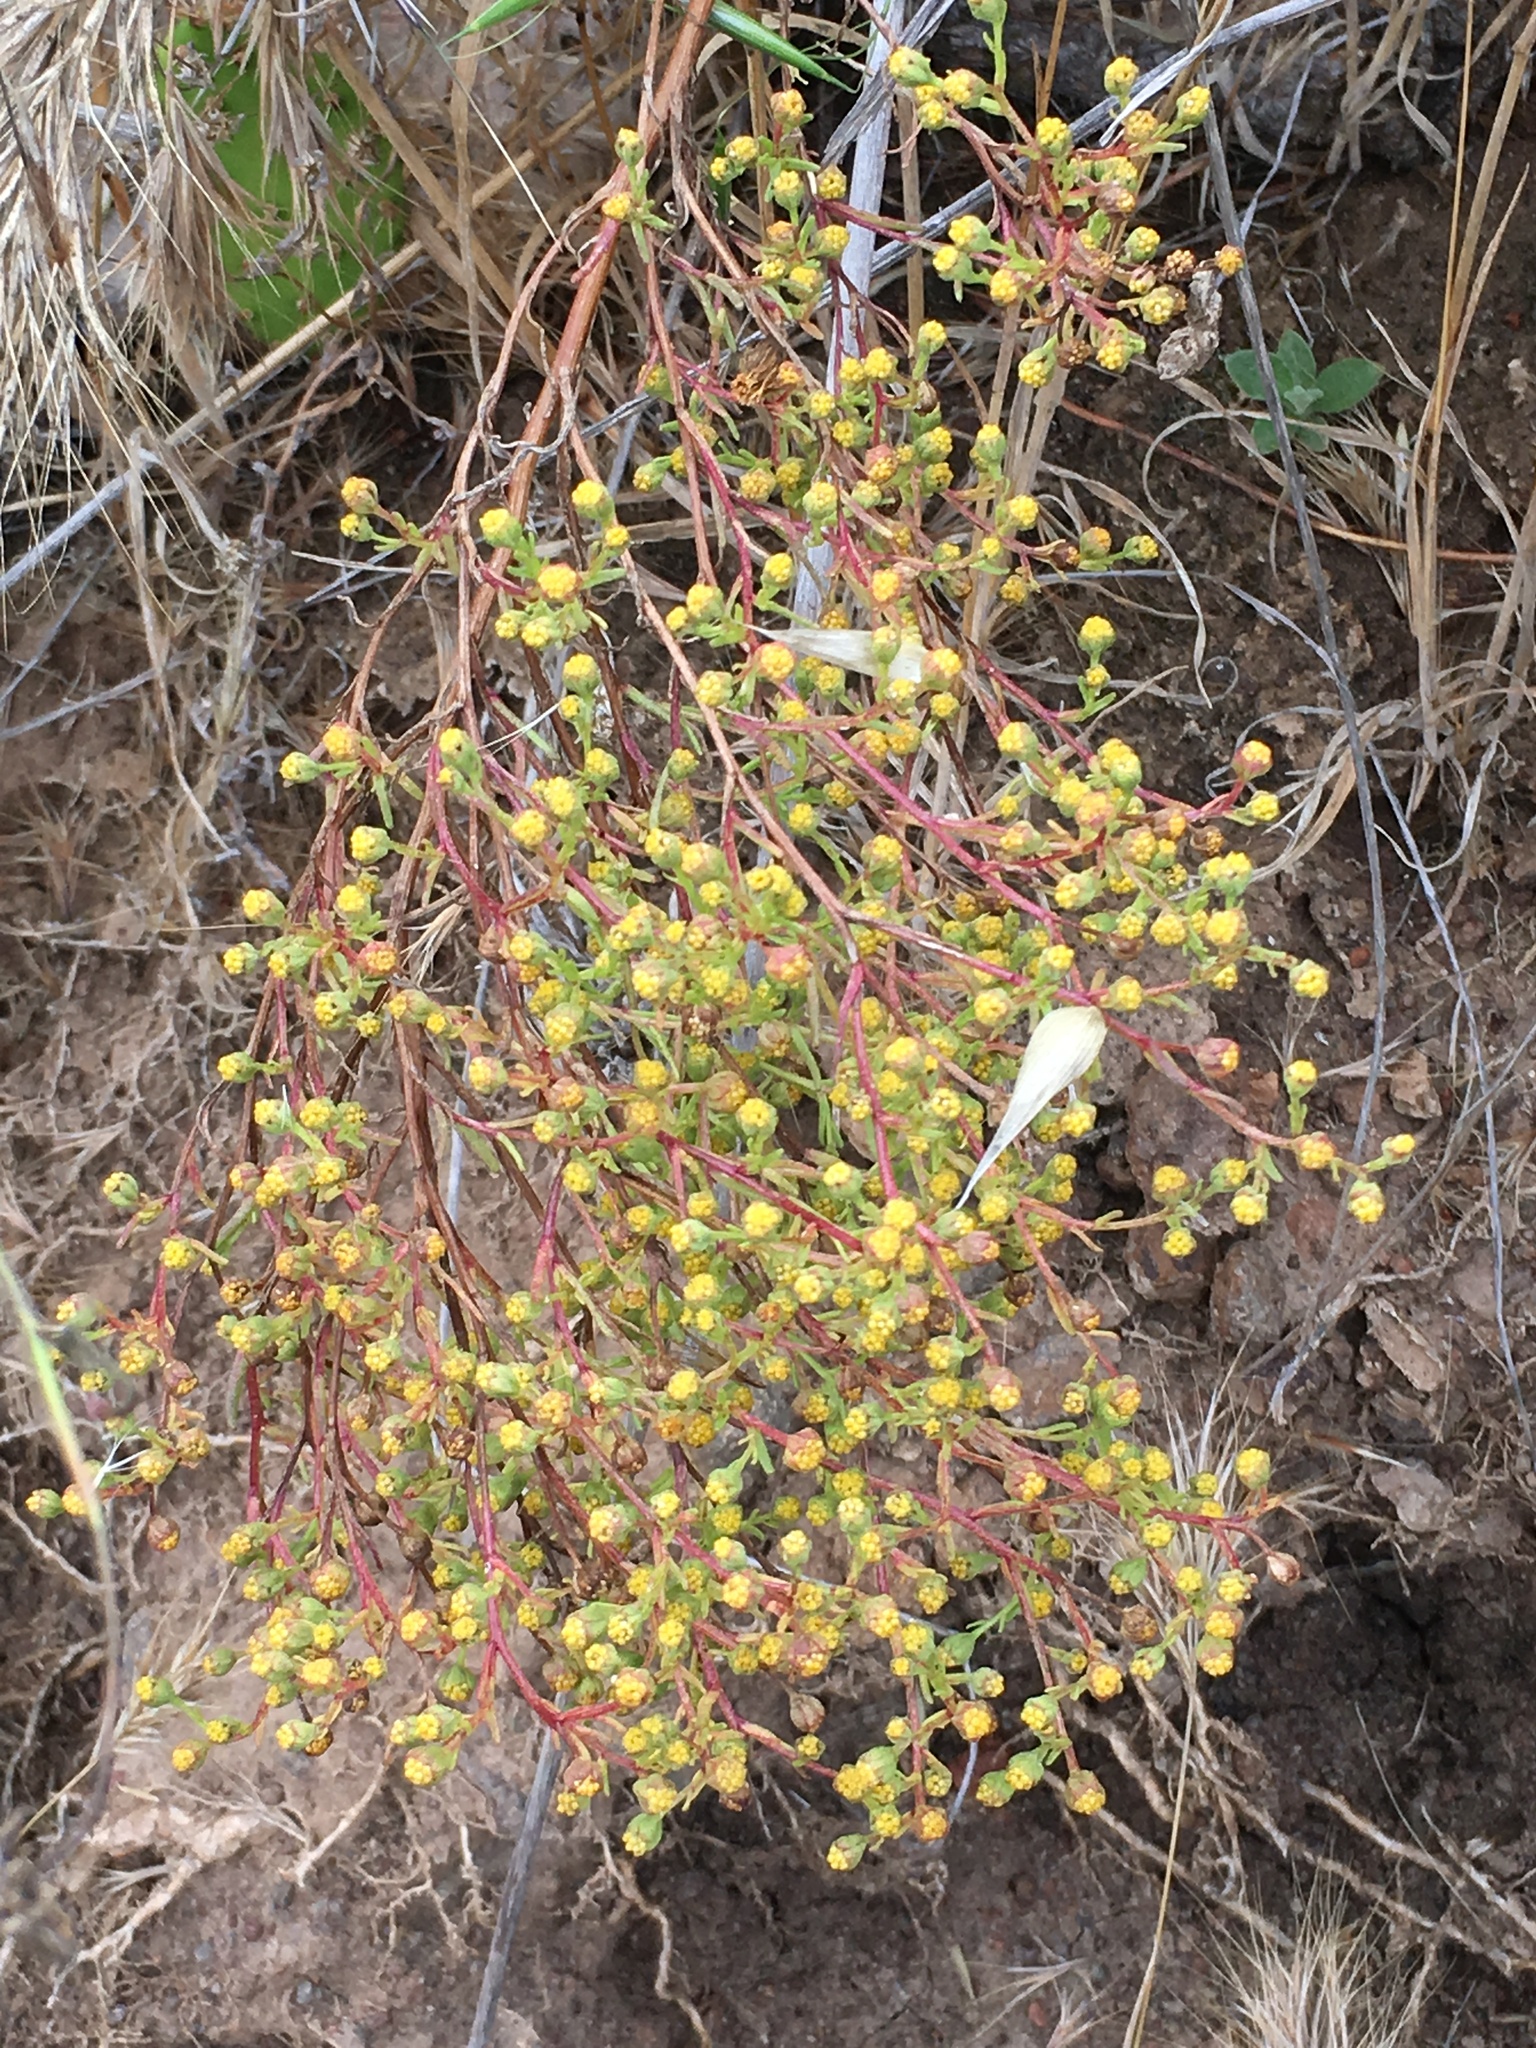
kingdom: Plantae
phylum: Tracheophyta
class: Magnoliopsida
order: Asterales
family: Asteraceae
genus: Amblyopappus
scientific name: Amblyopappus pusillus
